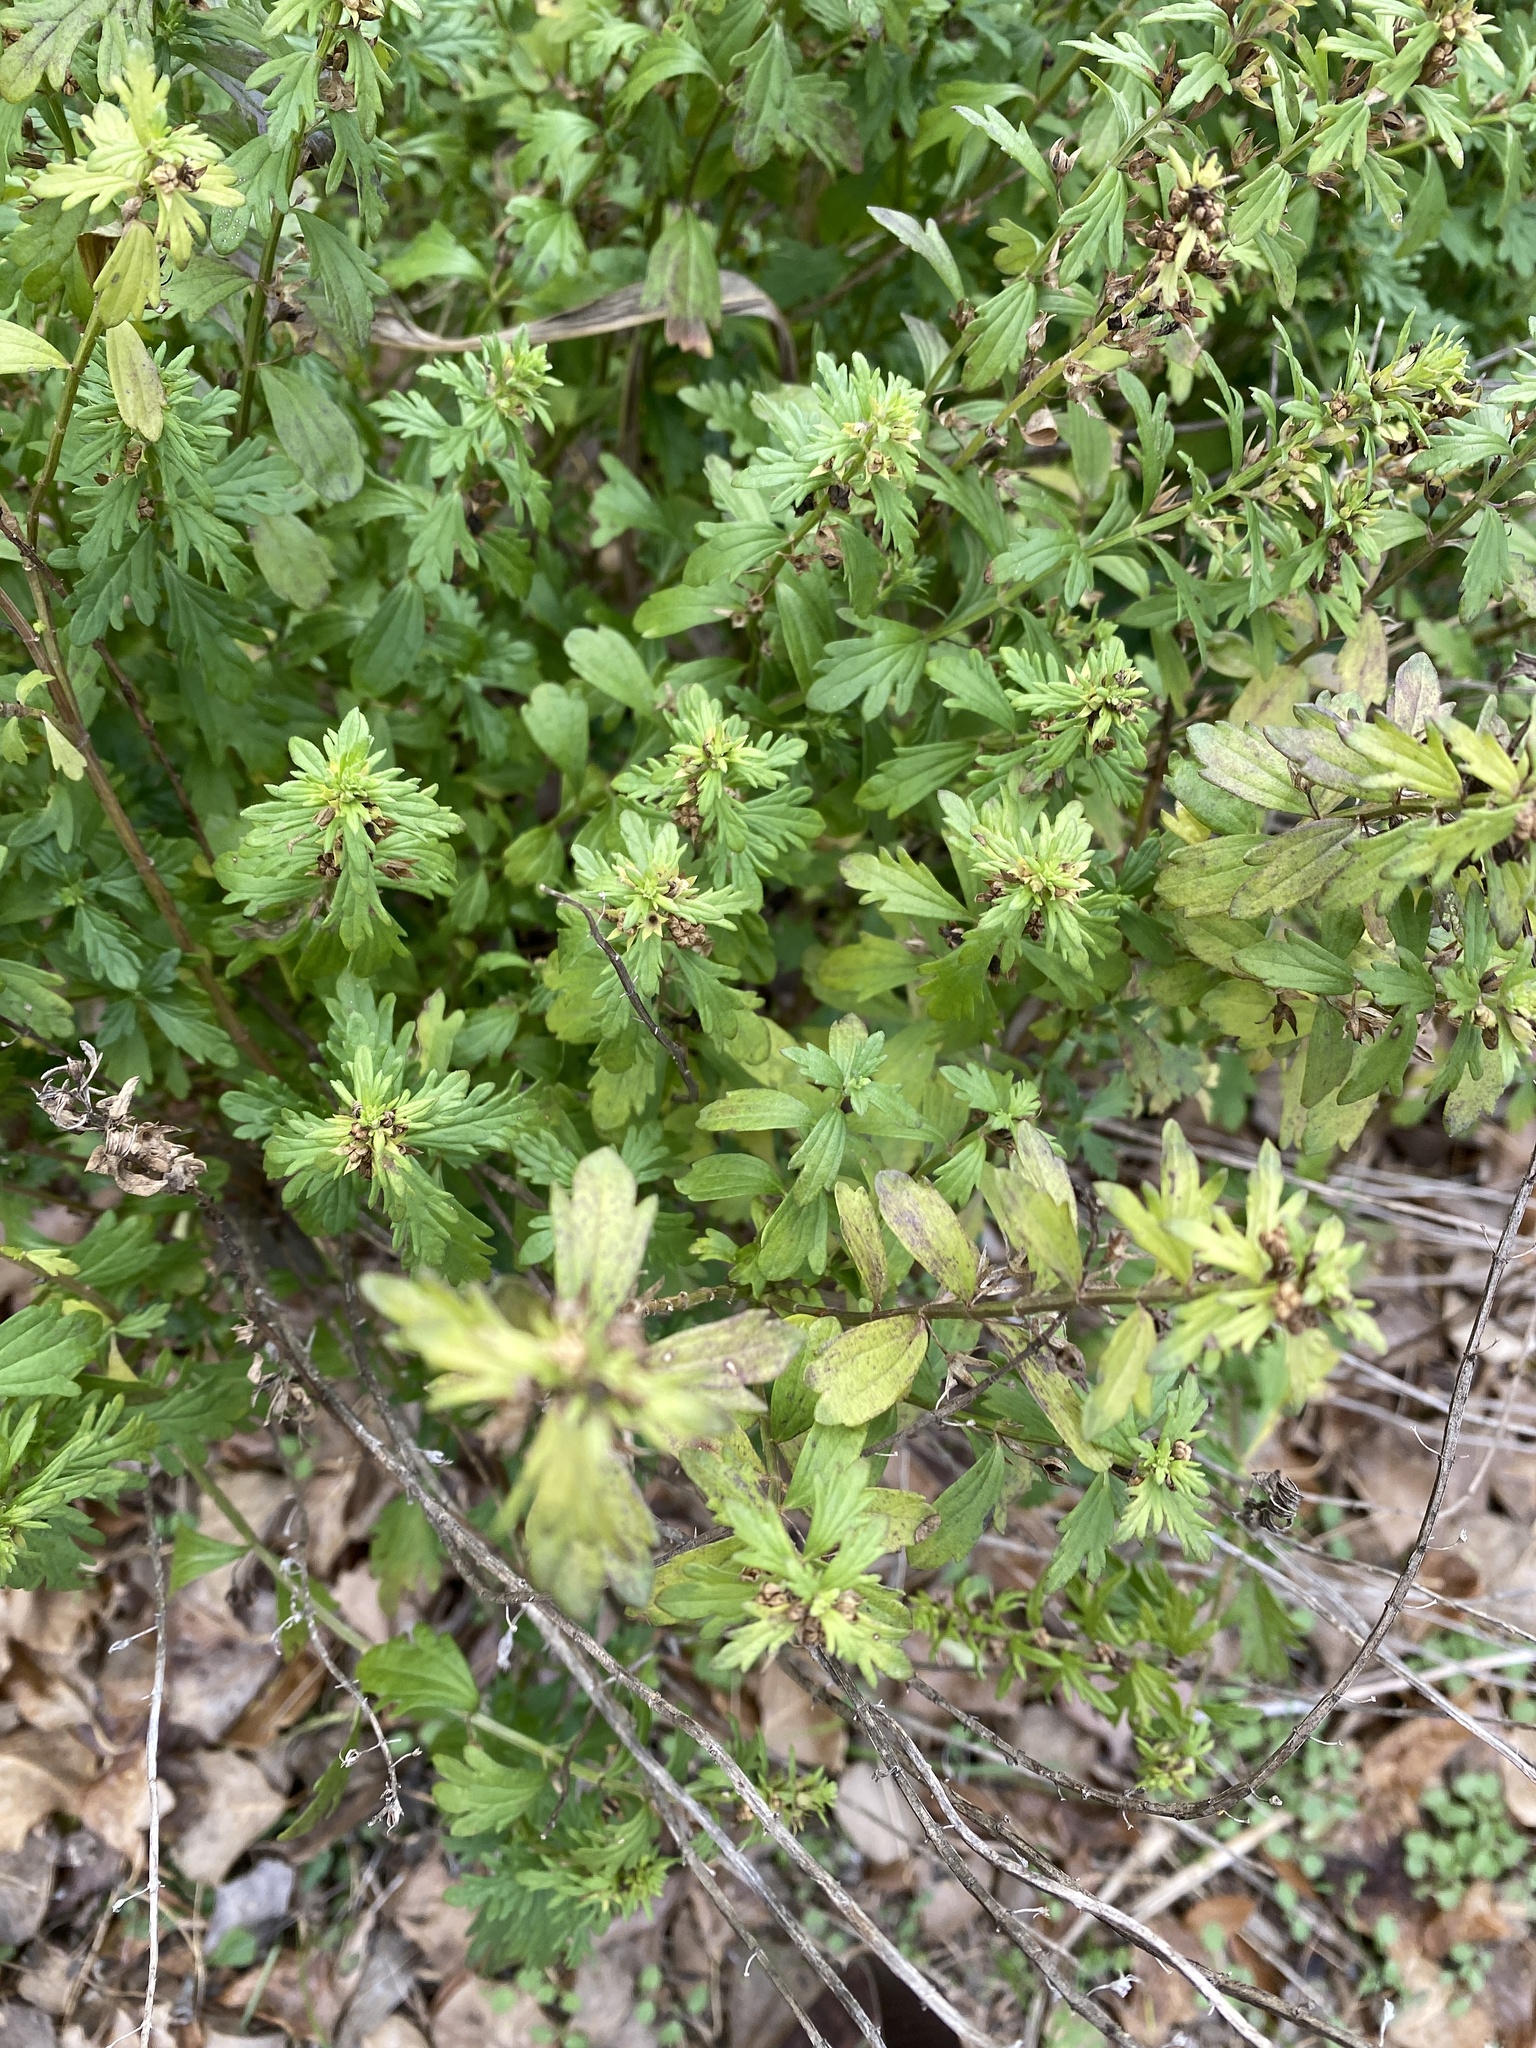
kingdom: Plantae
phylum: Tracheophyta
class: Magnoliopsida
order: Lamiales
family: Lamiaceae
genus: Teucrium
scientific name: Teucrium cubense
